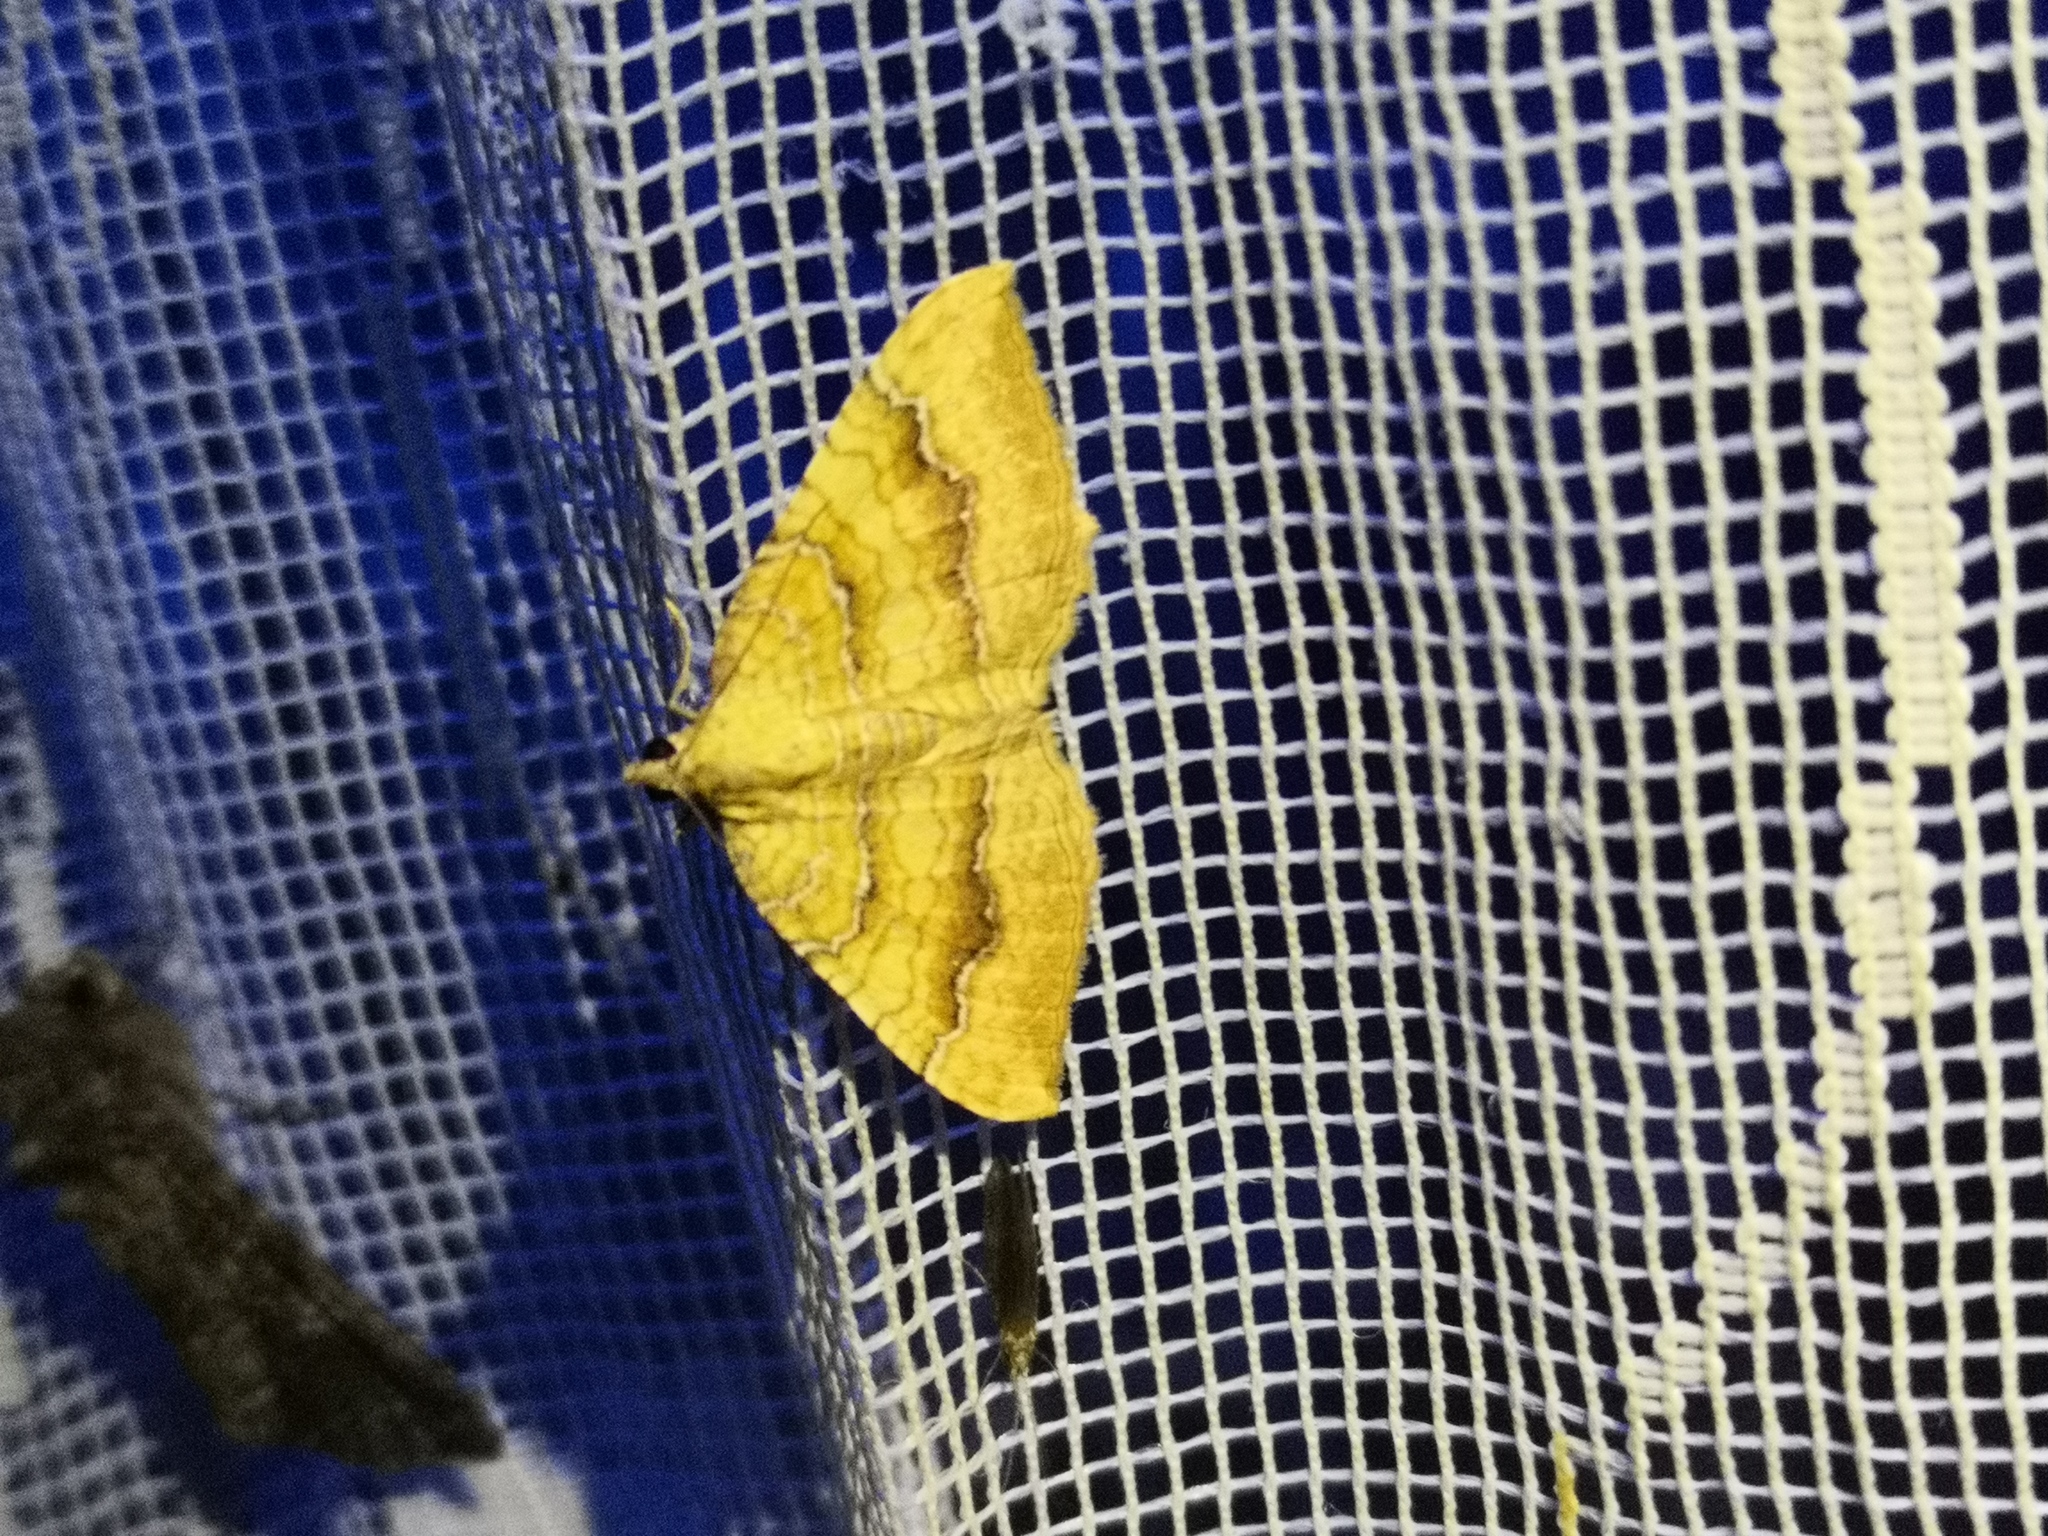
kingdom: Animalia
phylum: Arthropoda
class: Insecta
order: Lepidoptera
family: Geometridae
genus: Camptogramma
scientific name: Camptogramma bilineata
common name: Yellow shell
